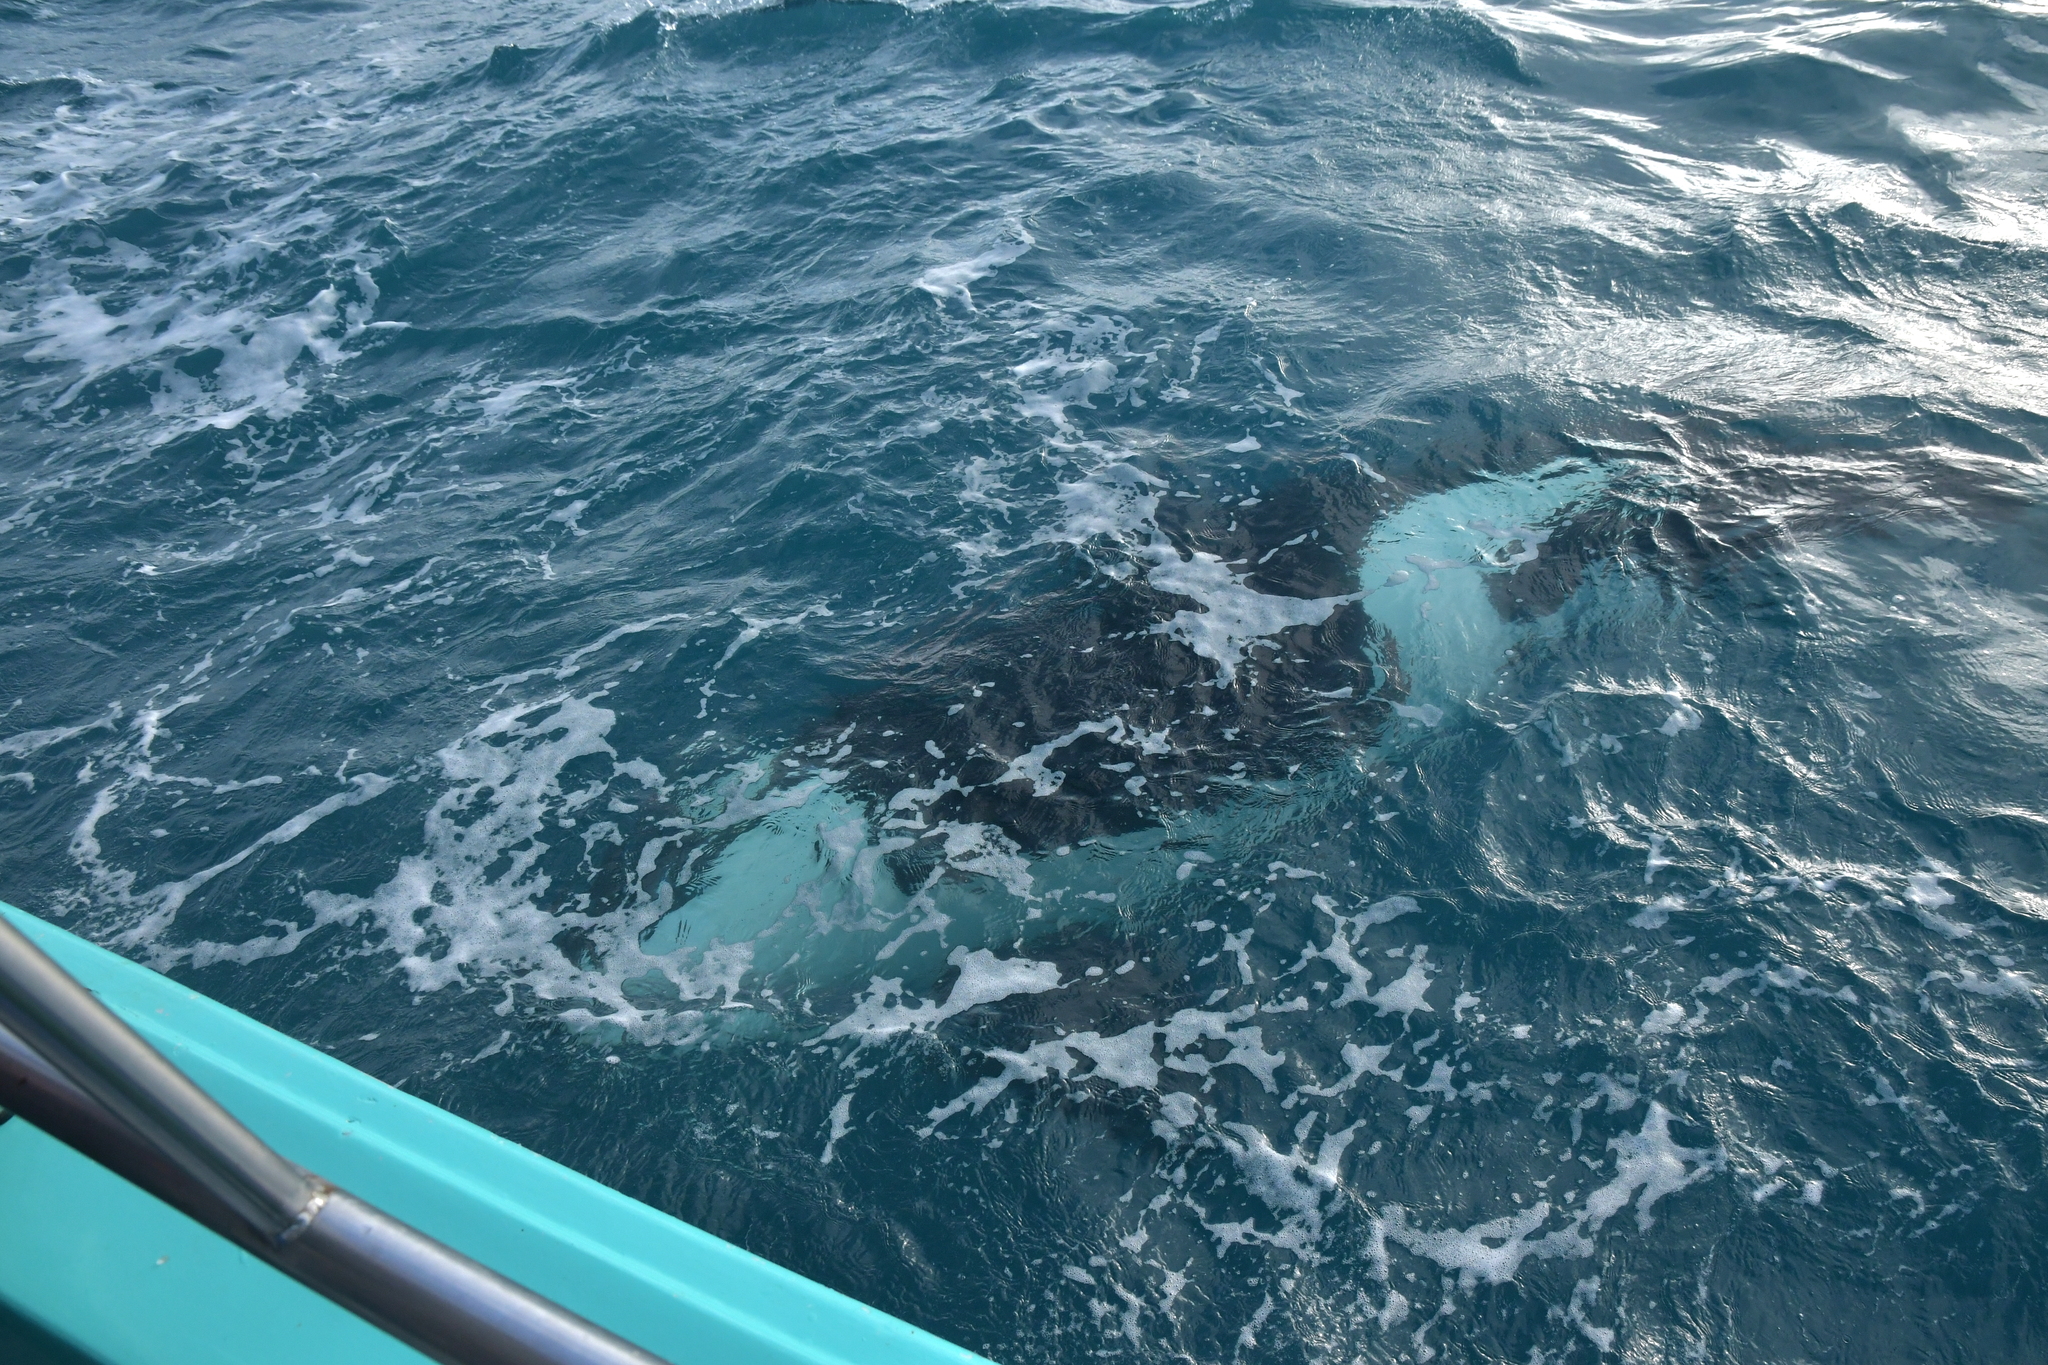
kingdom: Animalia
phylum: Chordata
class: Mammalia
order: Cetacea
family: Delphinidae
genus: Orcinus
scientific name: Orcinus orca
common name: Killer whale
